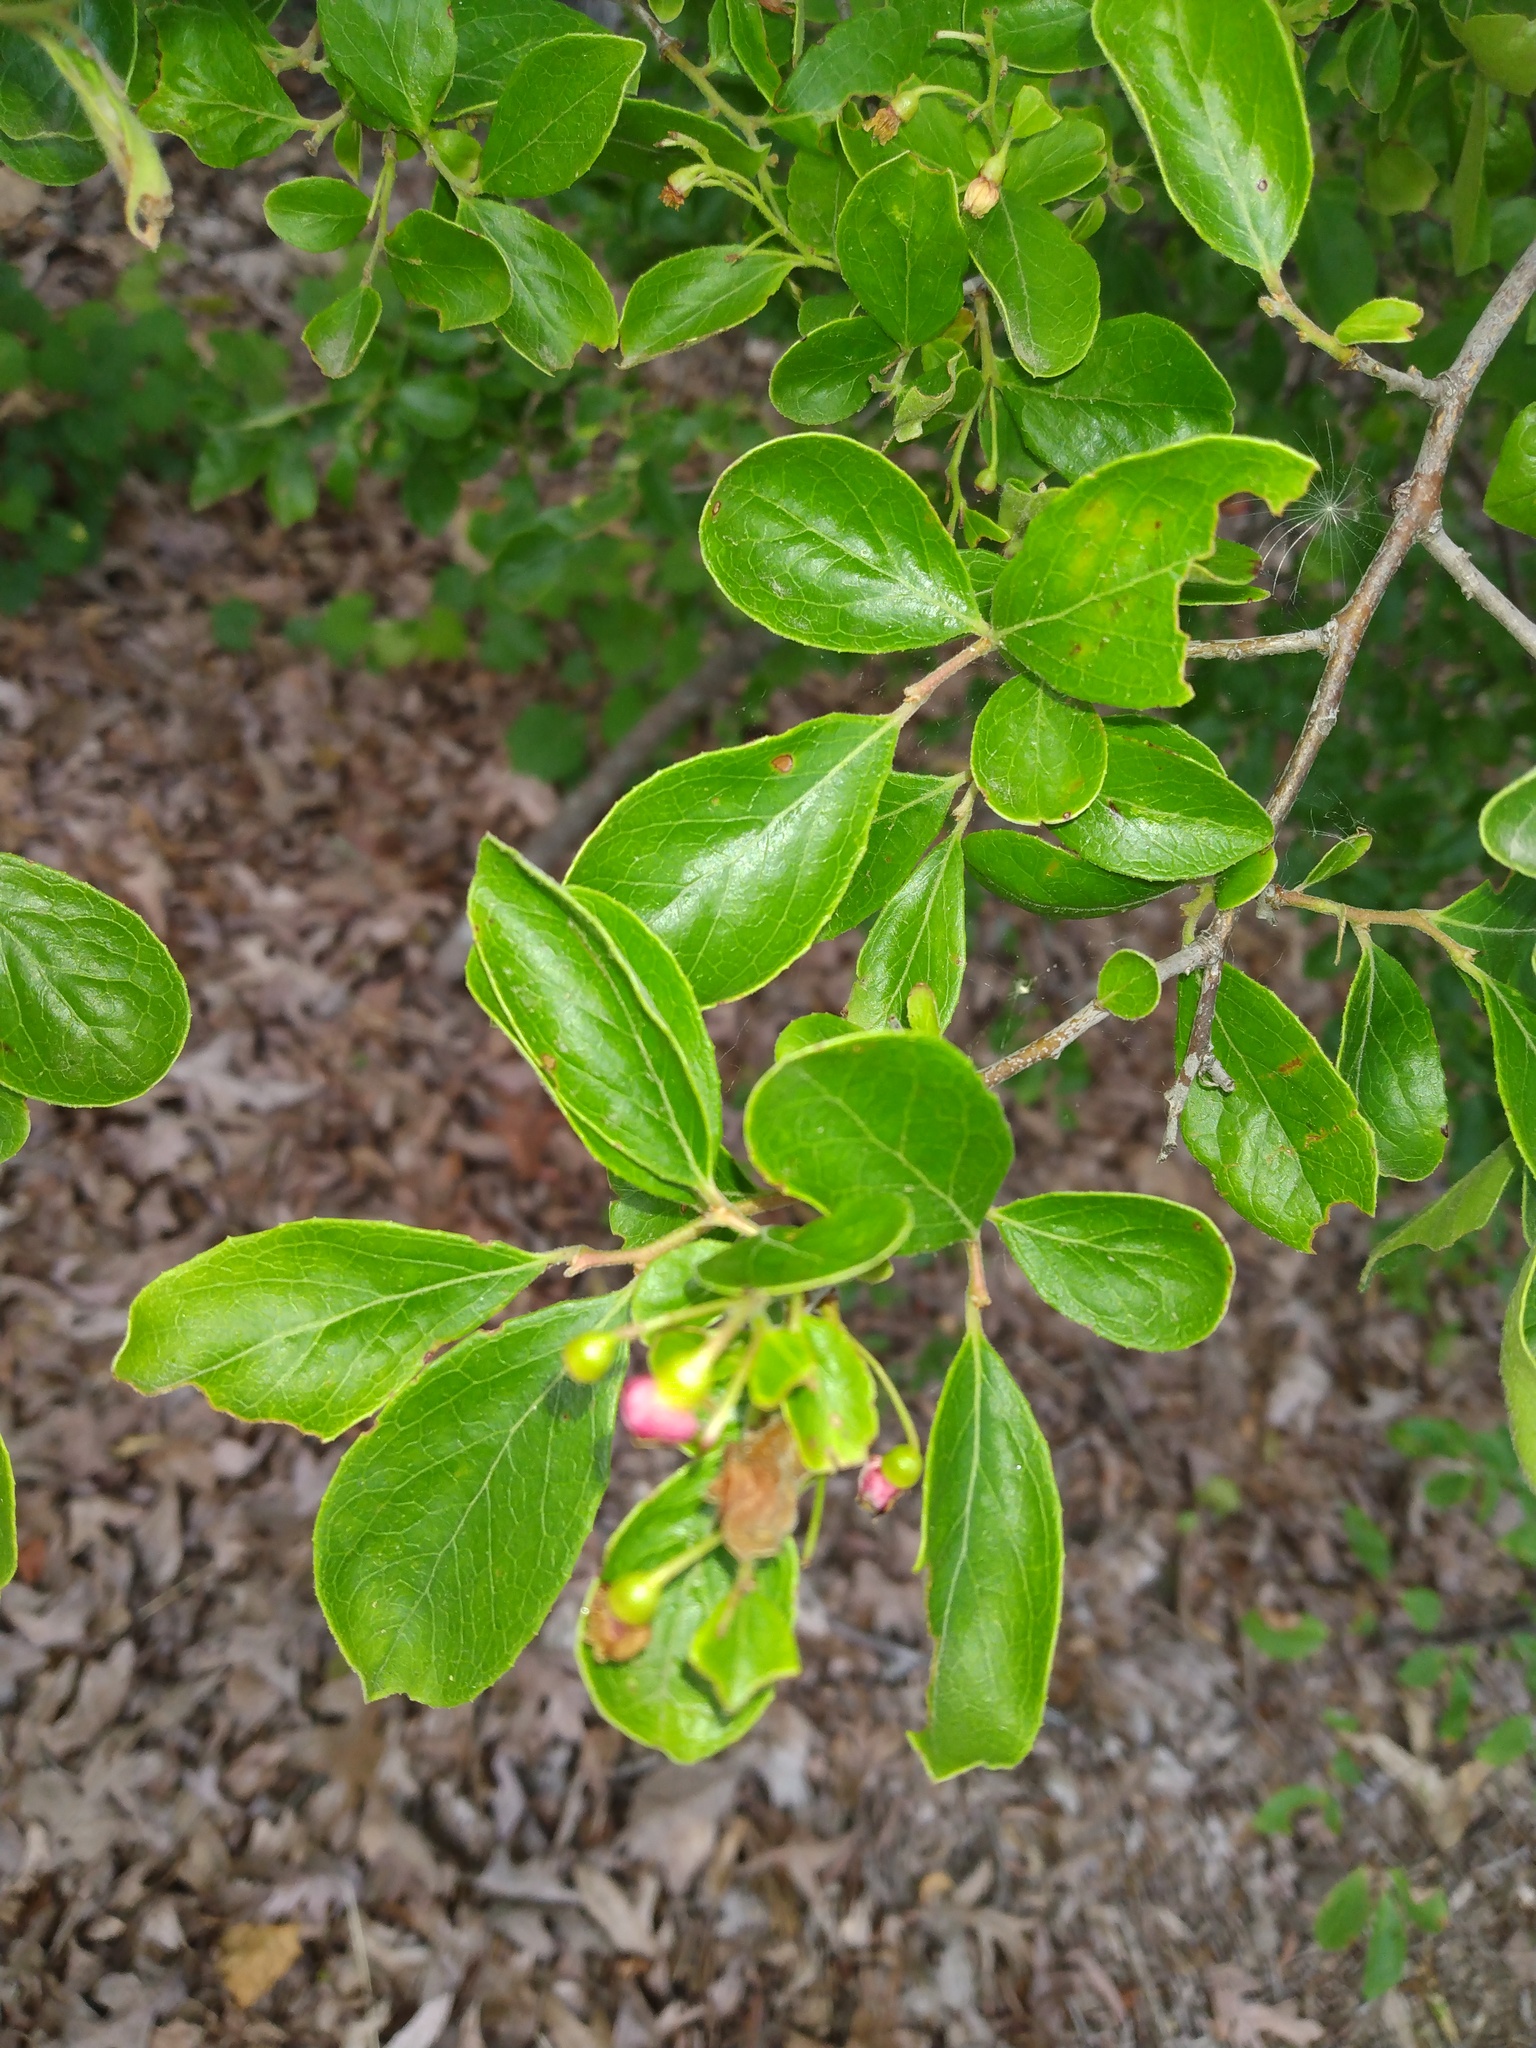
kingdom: Plantae
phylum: Tracheophyta
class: Magnoliopsida
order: Ericales
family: Ericaceae
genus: Vaccinium
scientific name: Vaccinium arboreum
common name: Farkleberry
